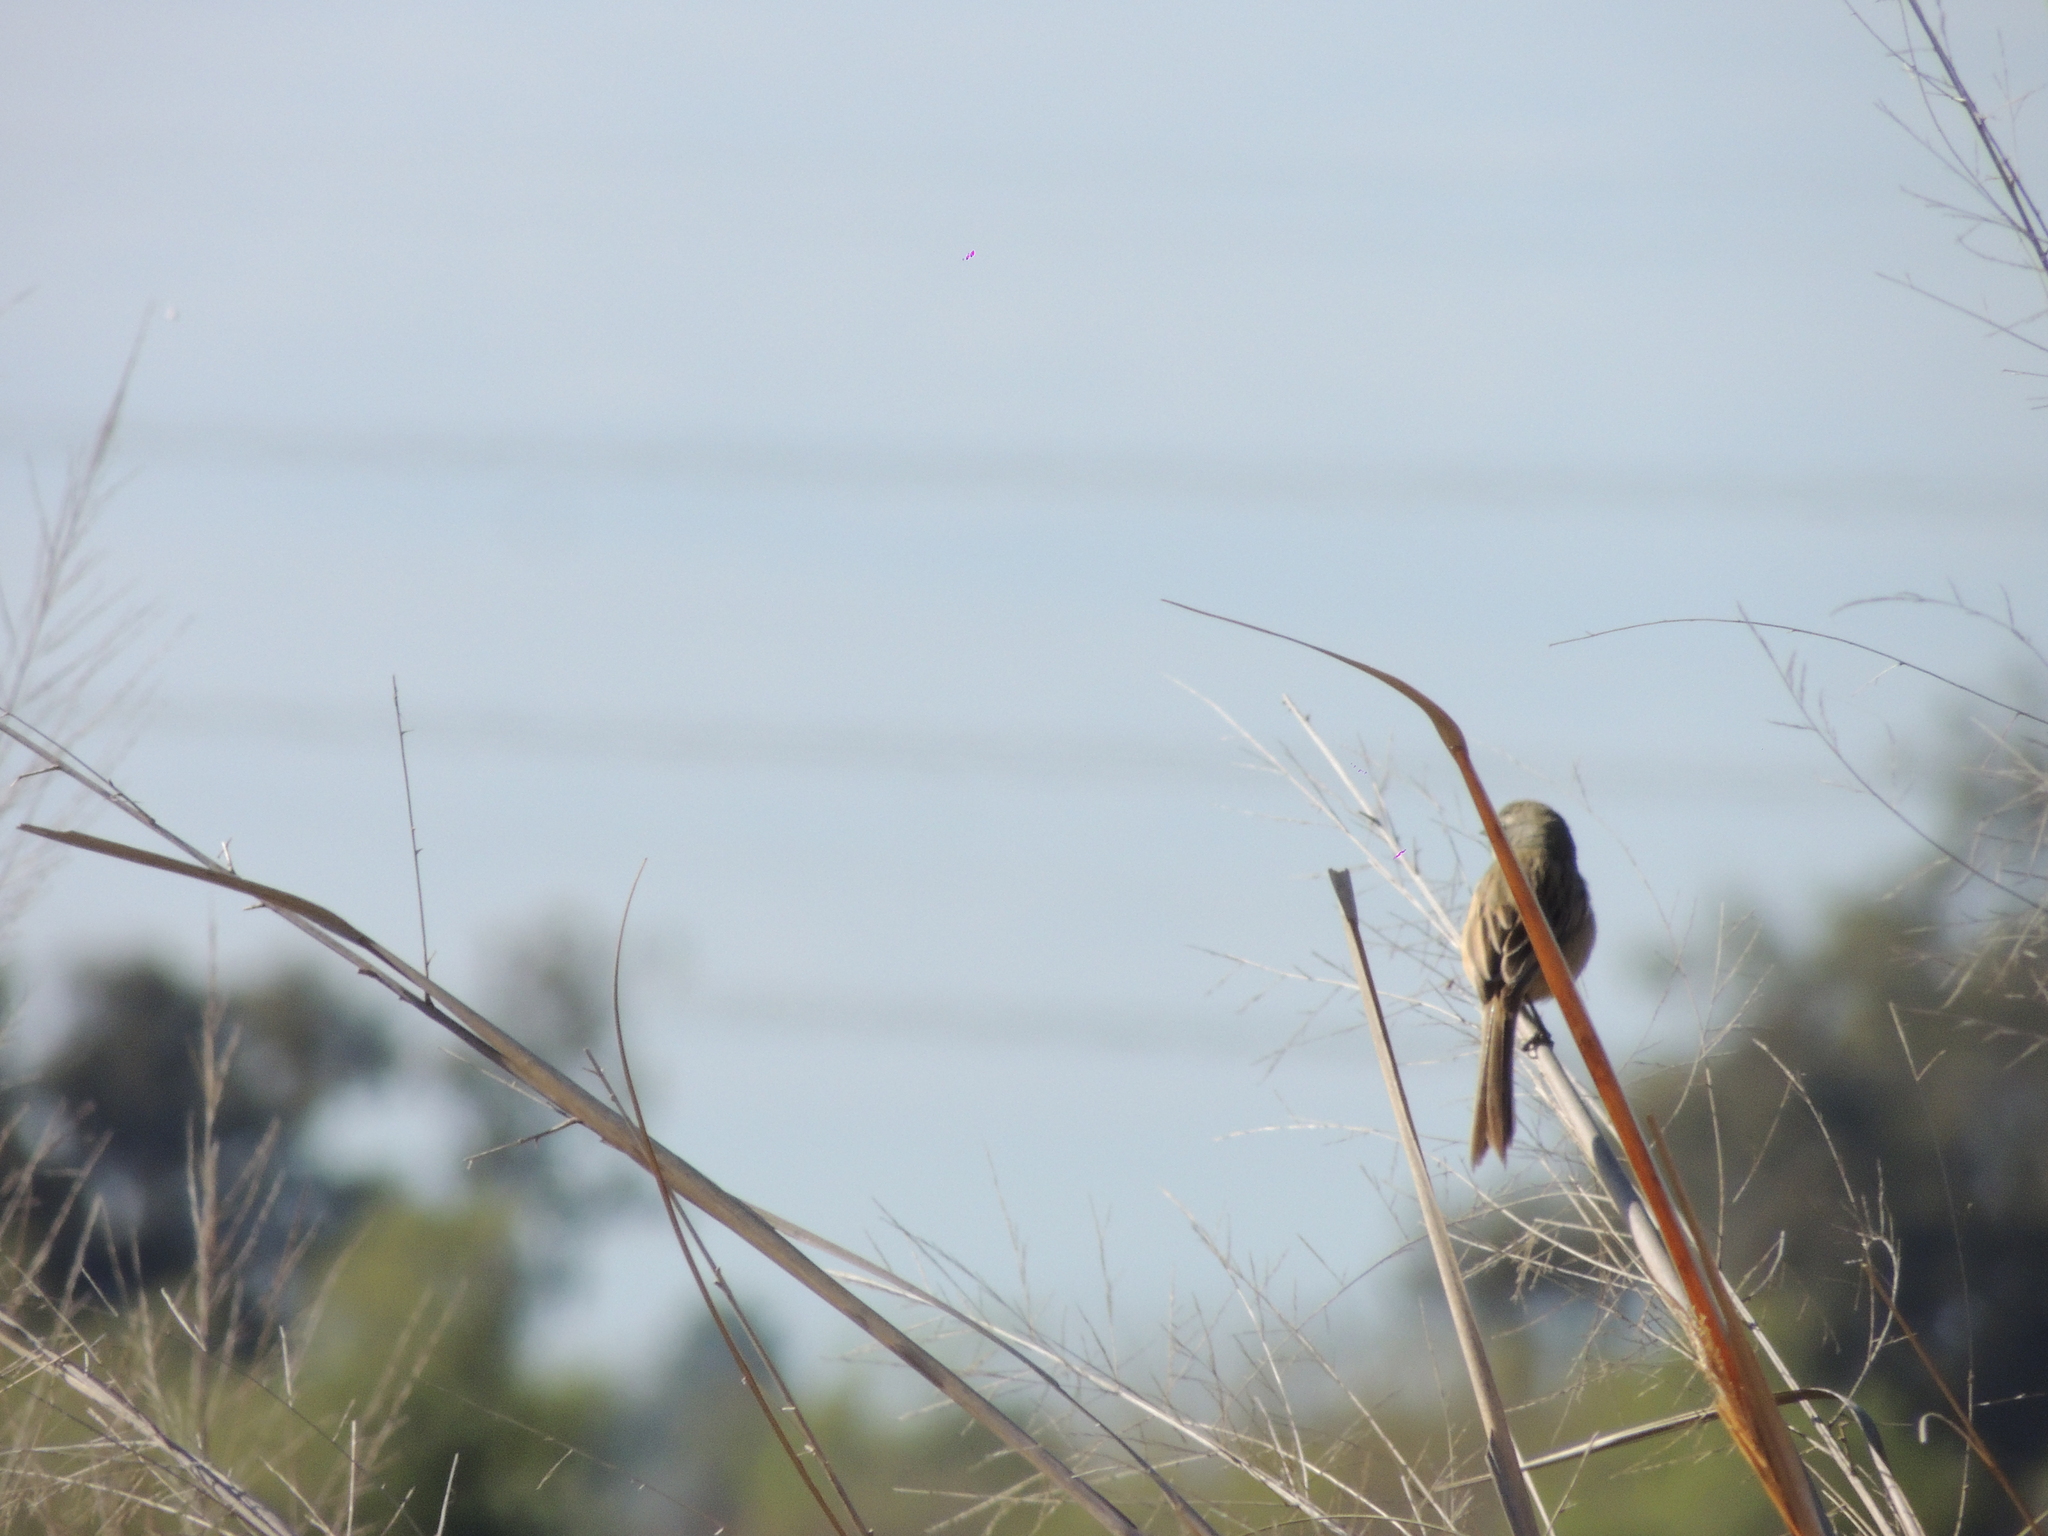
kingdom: Animalia
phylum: Chordata
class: Aves
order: Passeriformes
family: Thraupidae
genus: Donacospiza
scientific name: Donacospiza albifrons
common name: Long-tailed reed finch
